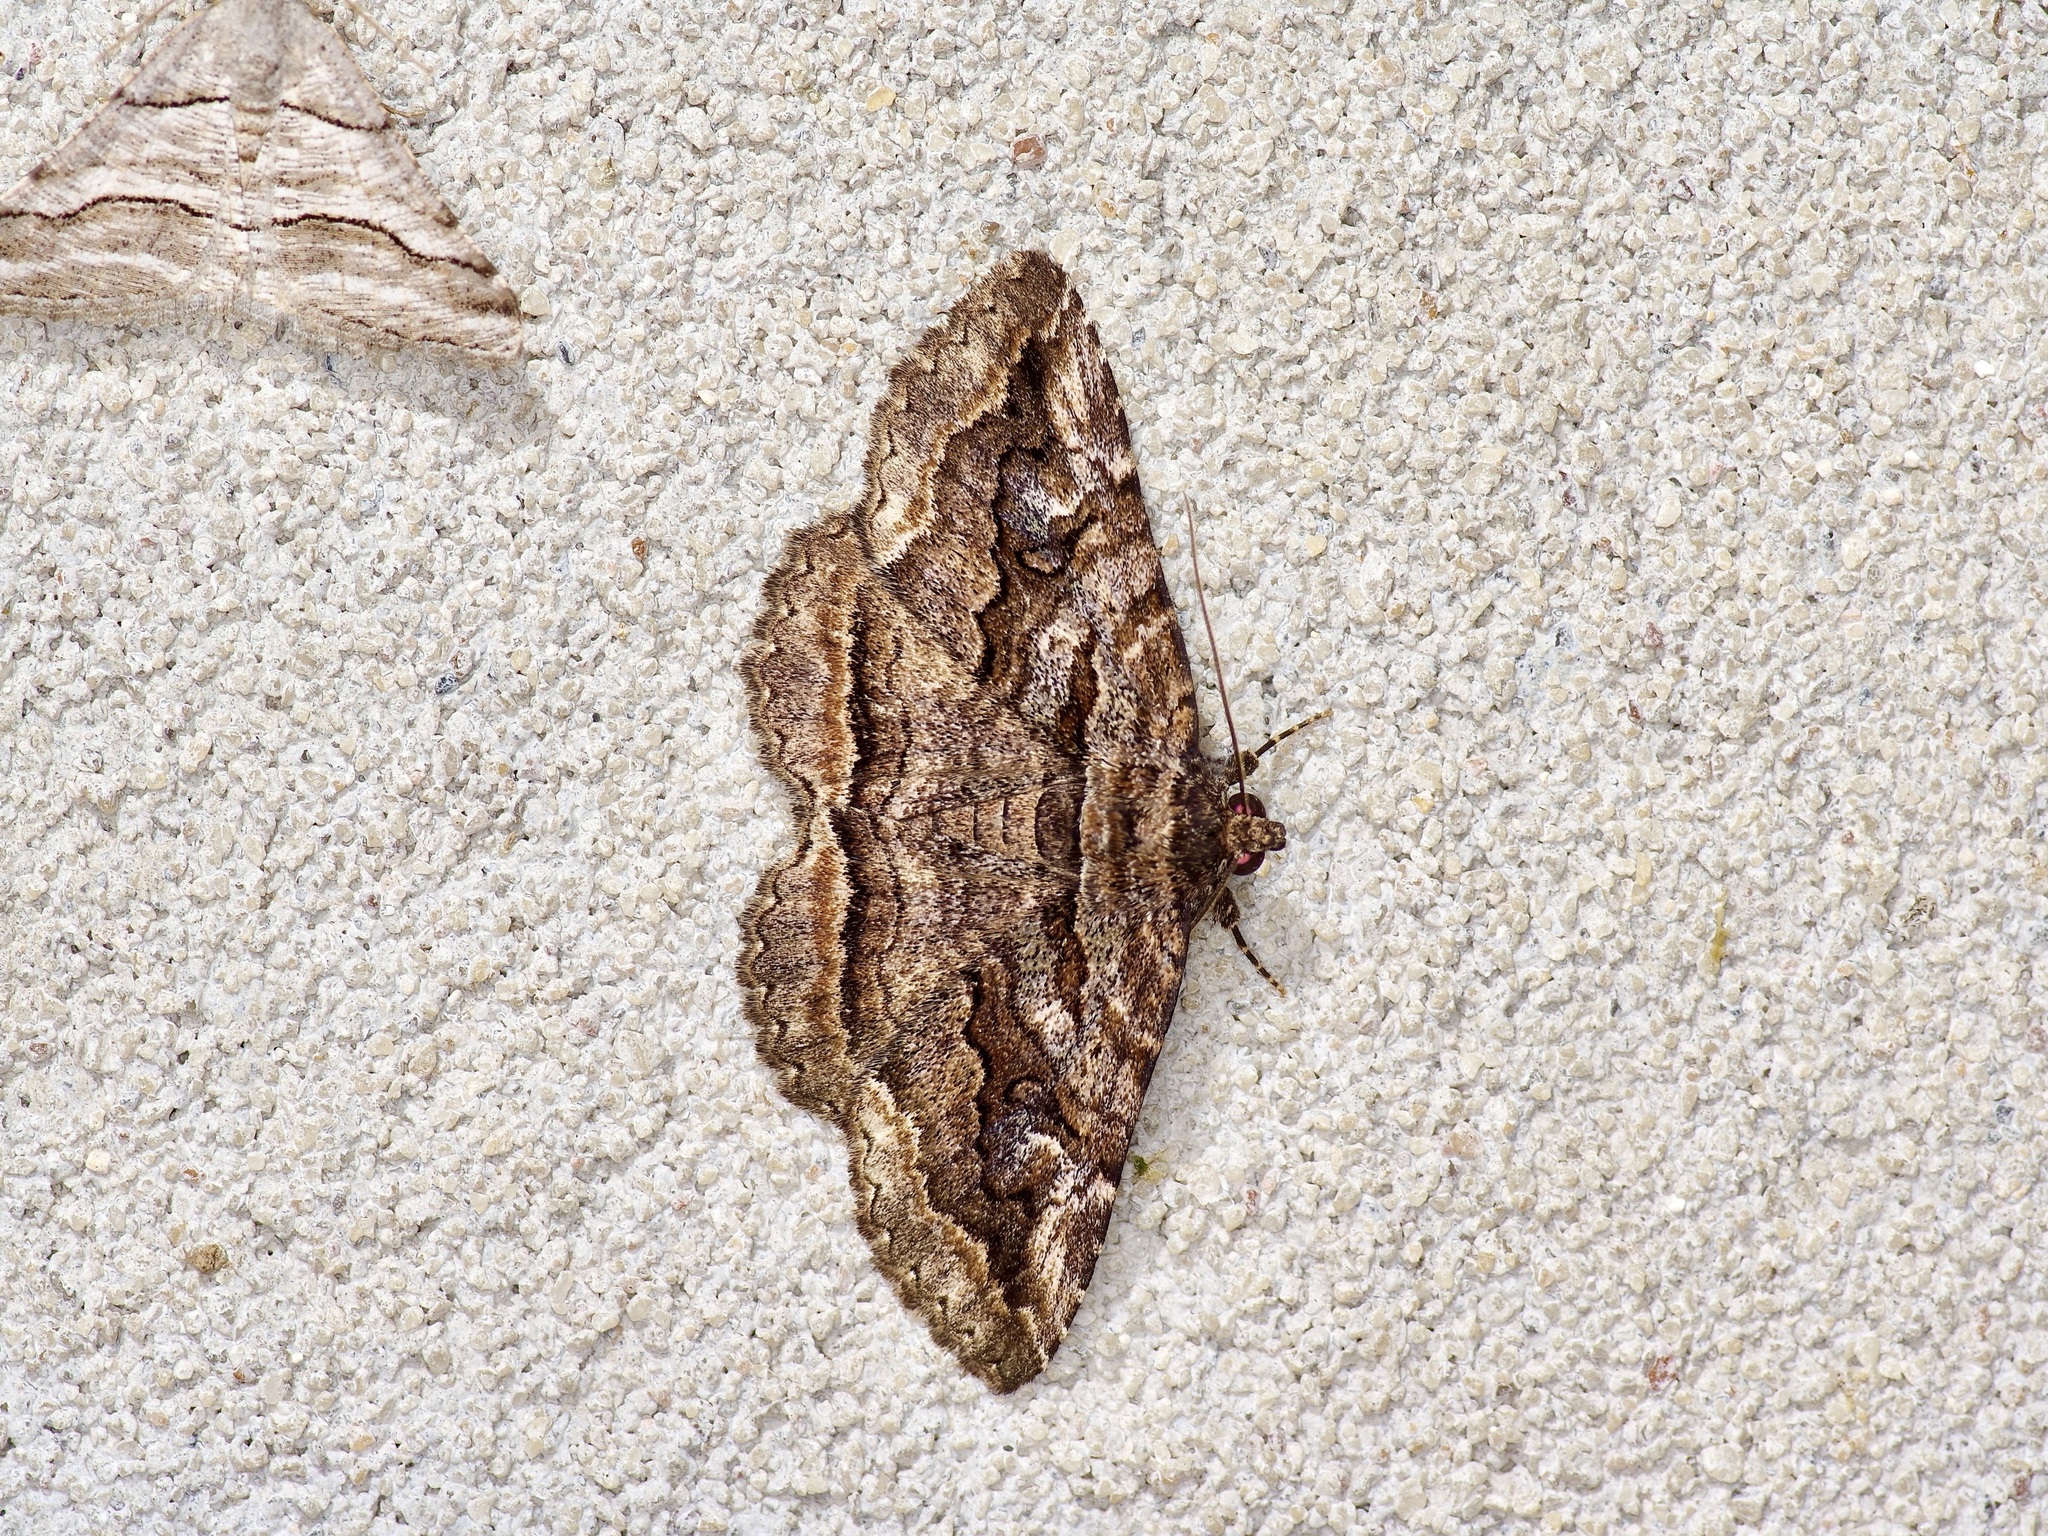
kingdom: Animalia
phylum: Arthropoda
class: Insecta
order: Lepidoptera
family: Erebidae
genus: Zaleops
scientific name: Zaleops umbrina
